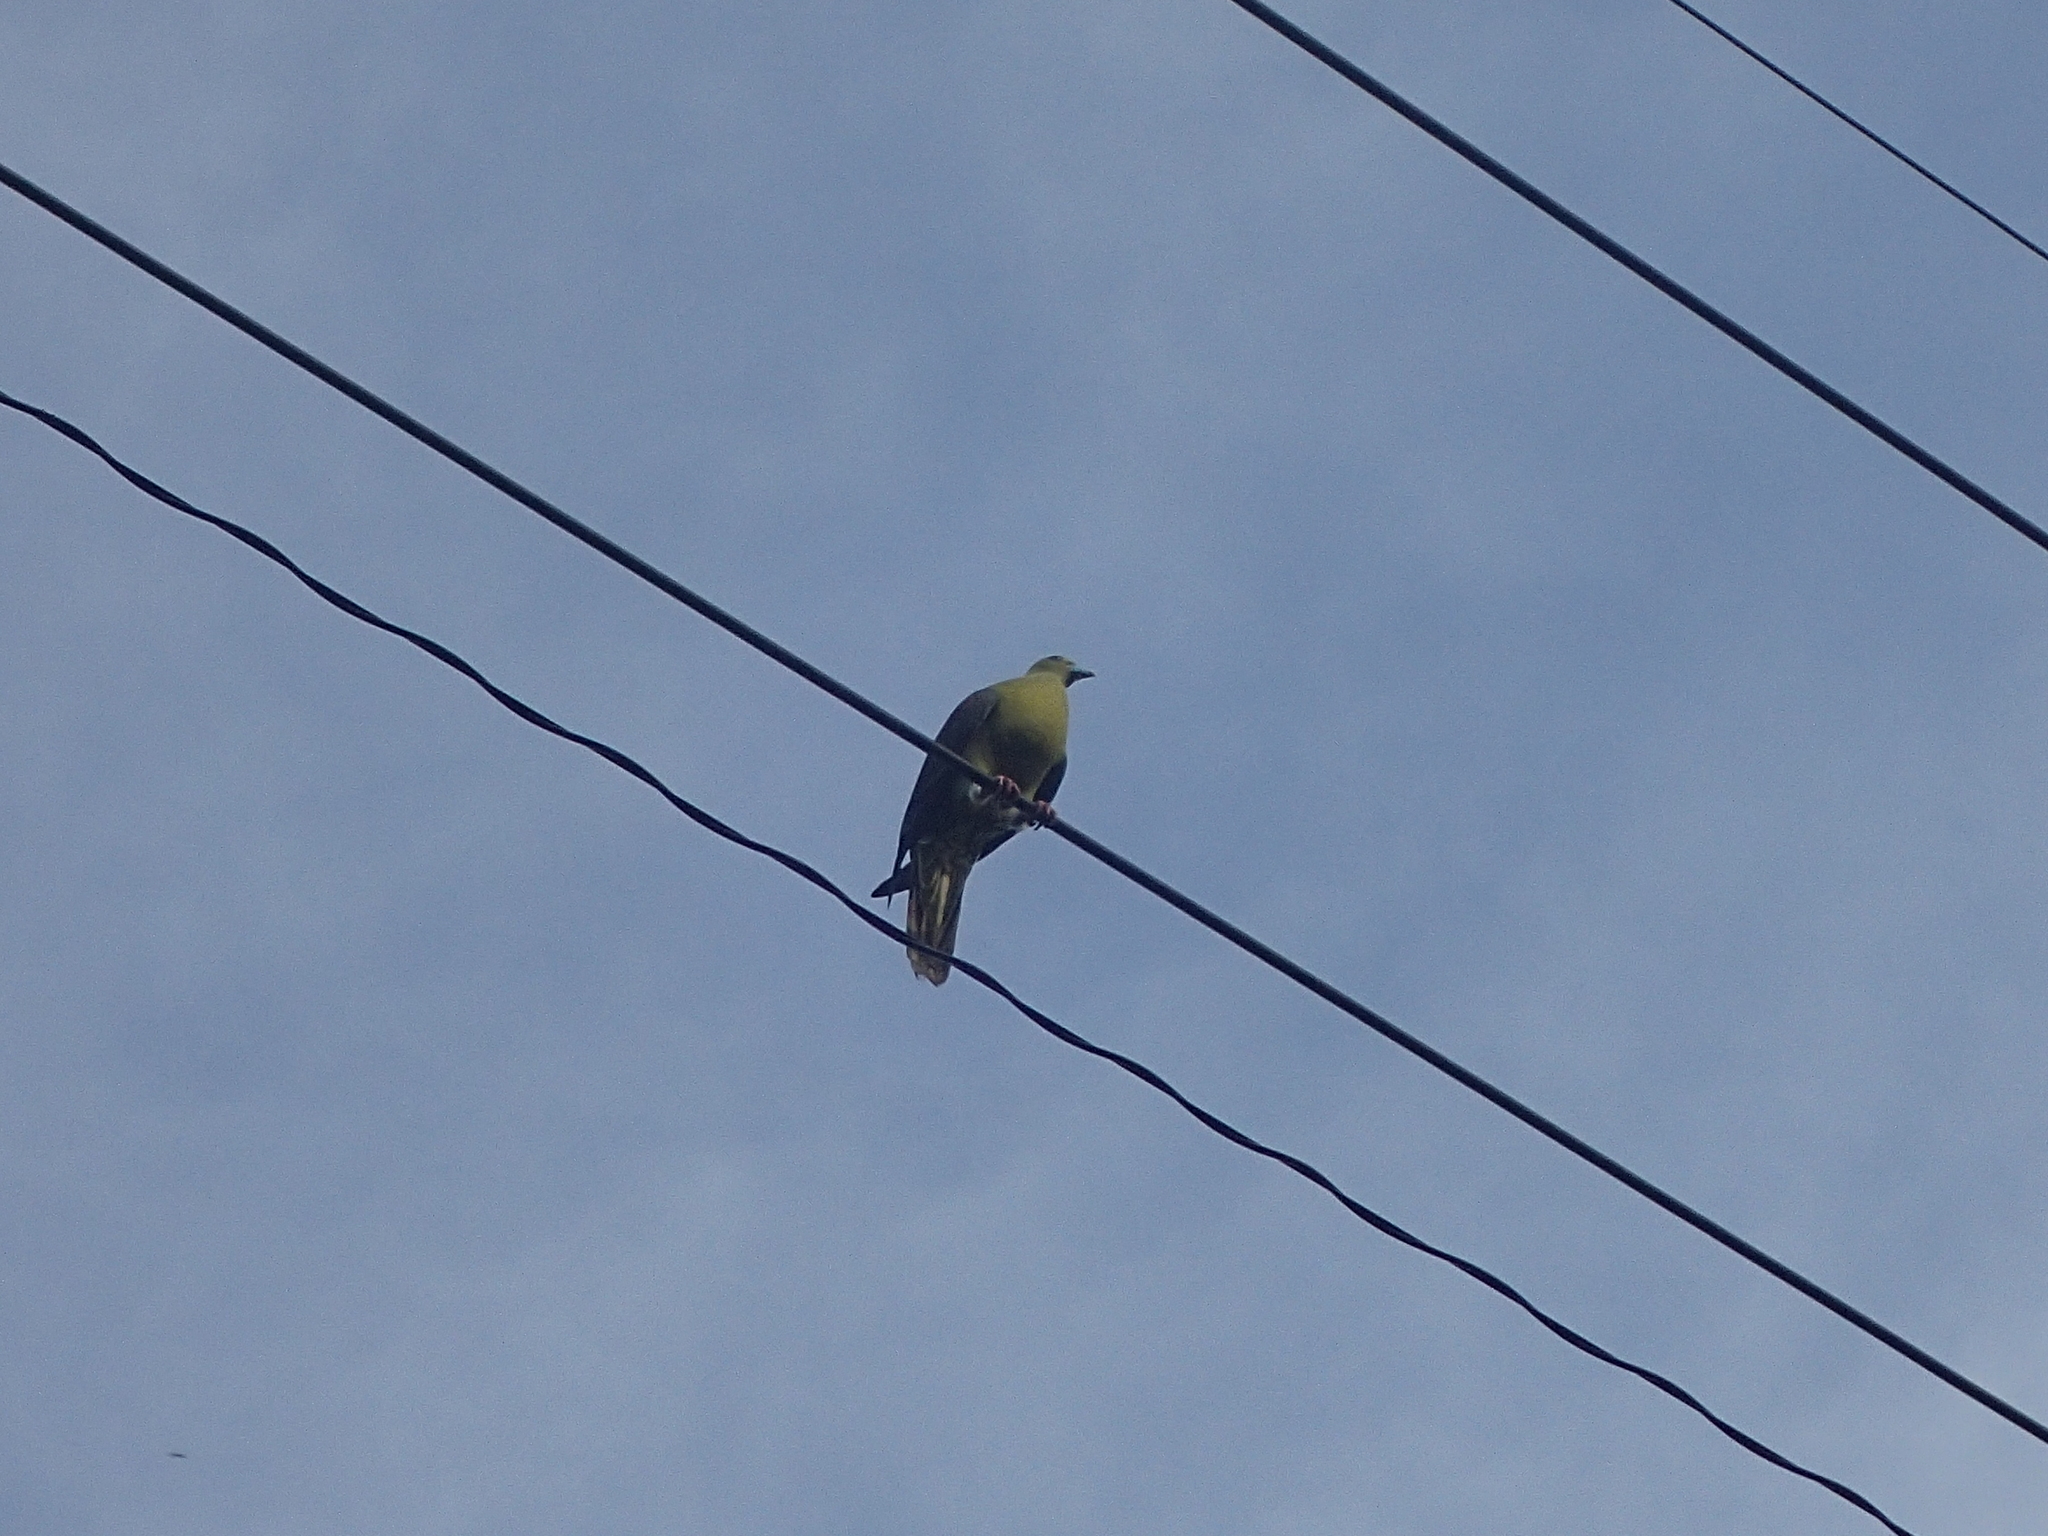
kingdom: Animalia
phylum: Chordata
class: Aves
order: Columbiformes
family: Columbidae
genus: Treron
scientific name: Treron formosae
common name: Whistling green-pigeon
